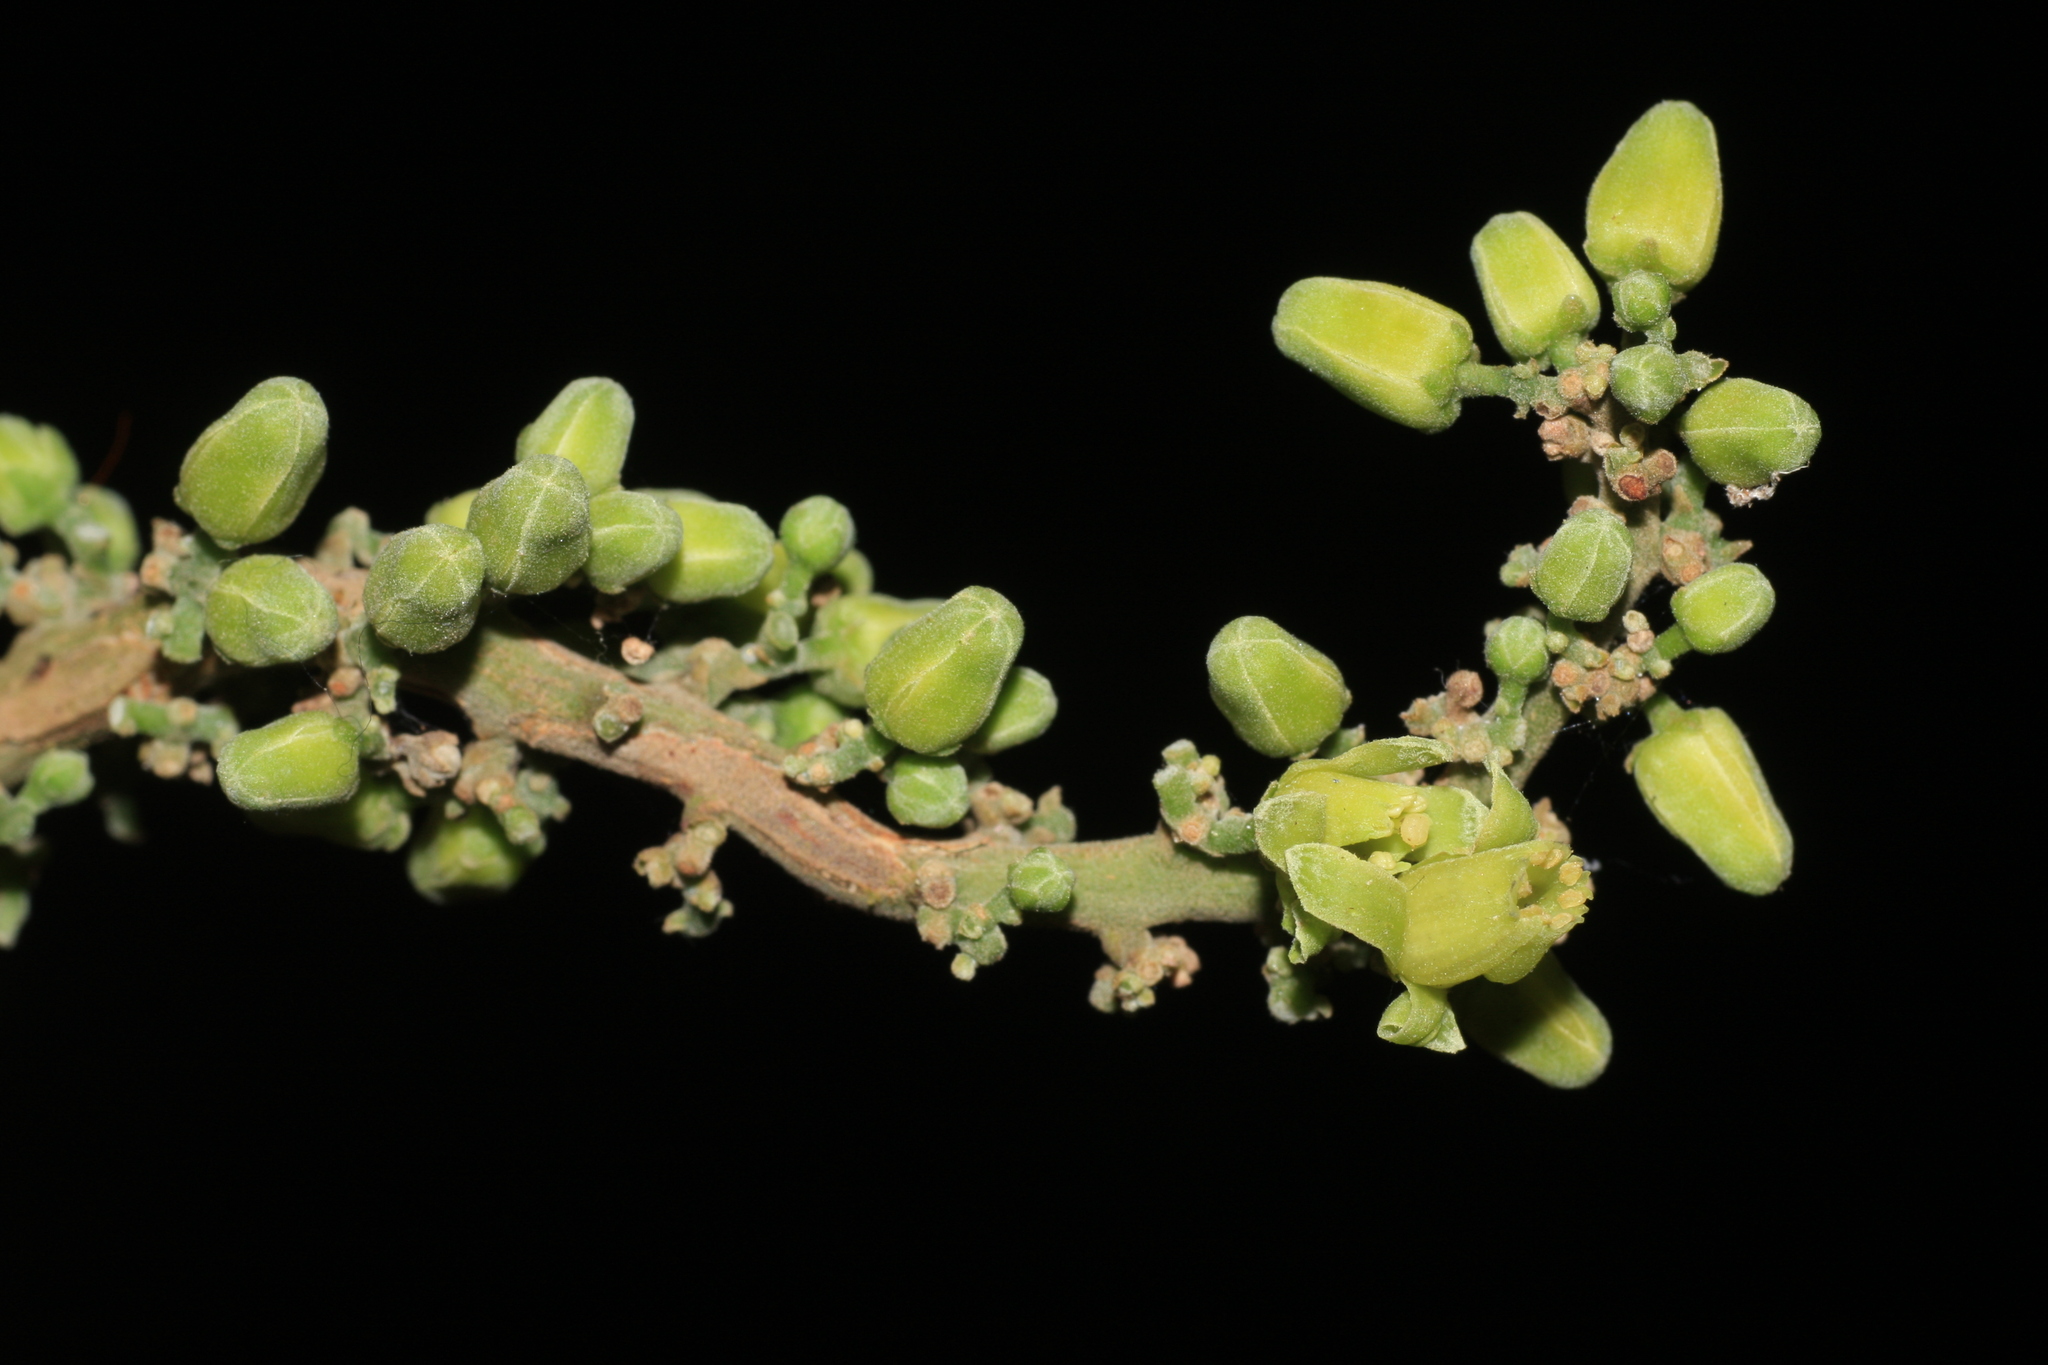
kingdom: Plantae
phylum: Tracheophyta
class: Magnoliopsida
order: Sapindales
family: Meliaceae
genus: Dysoxylum
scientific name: Dysoxylum malabaricum
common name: White cedar
